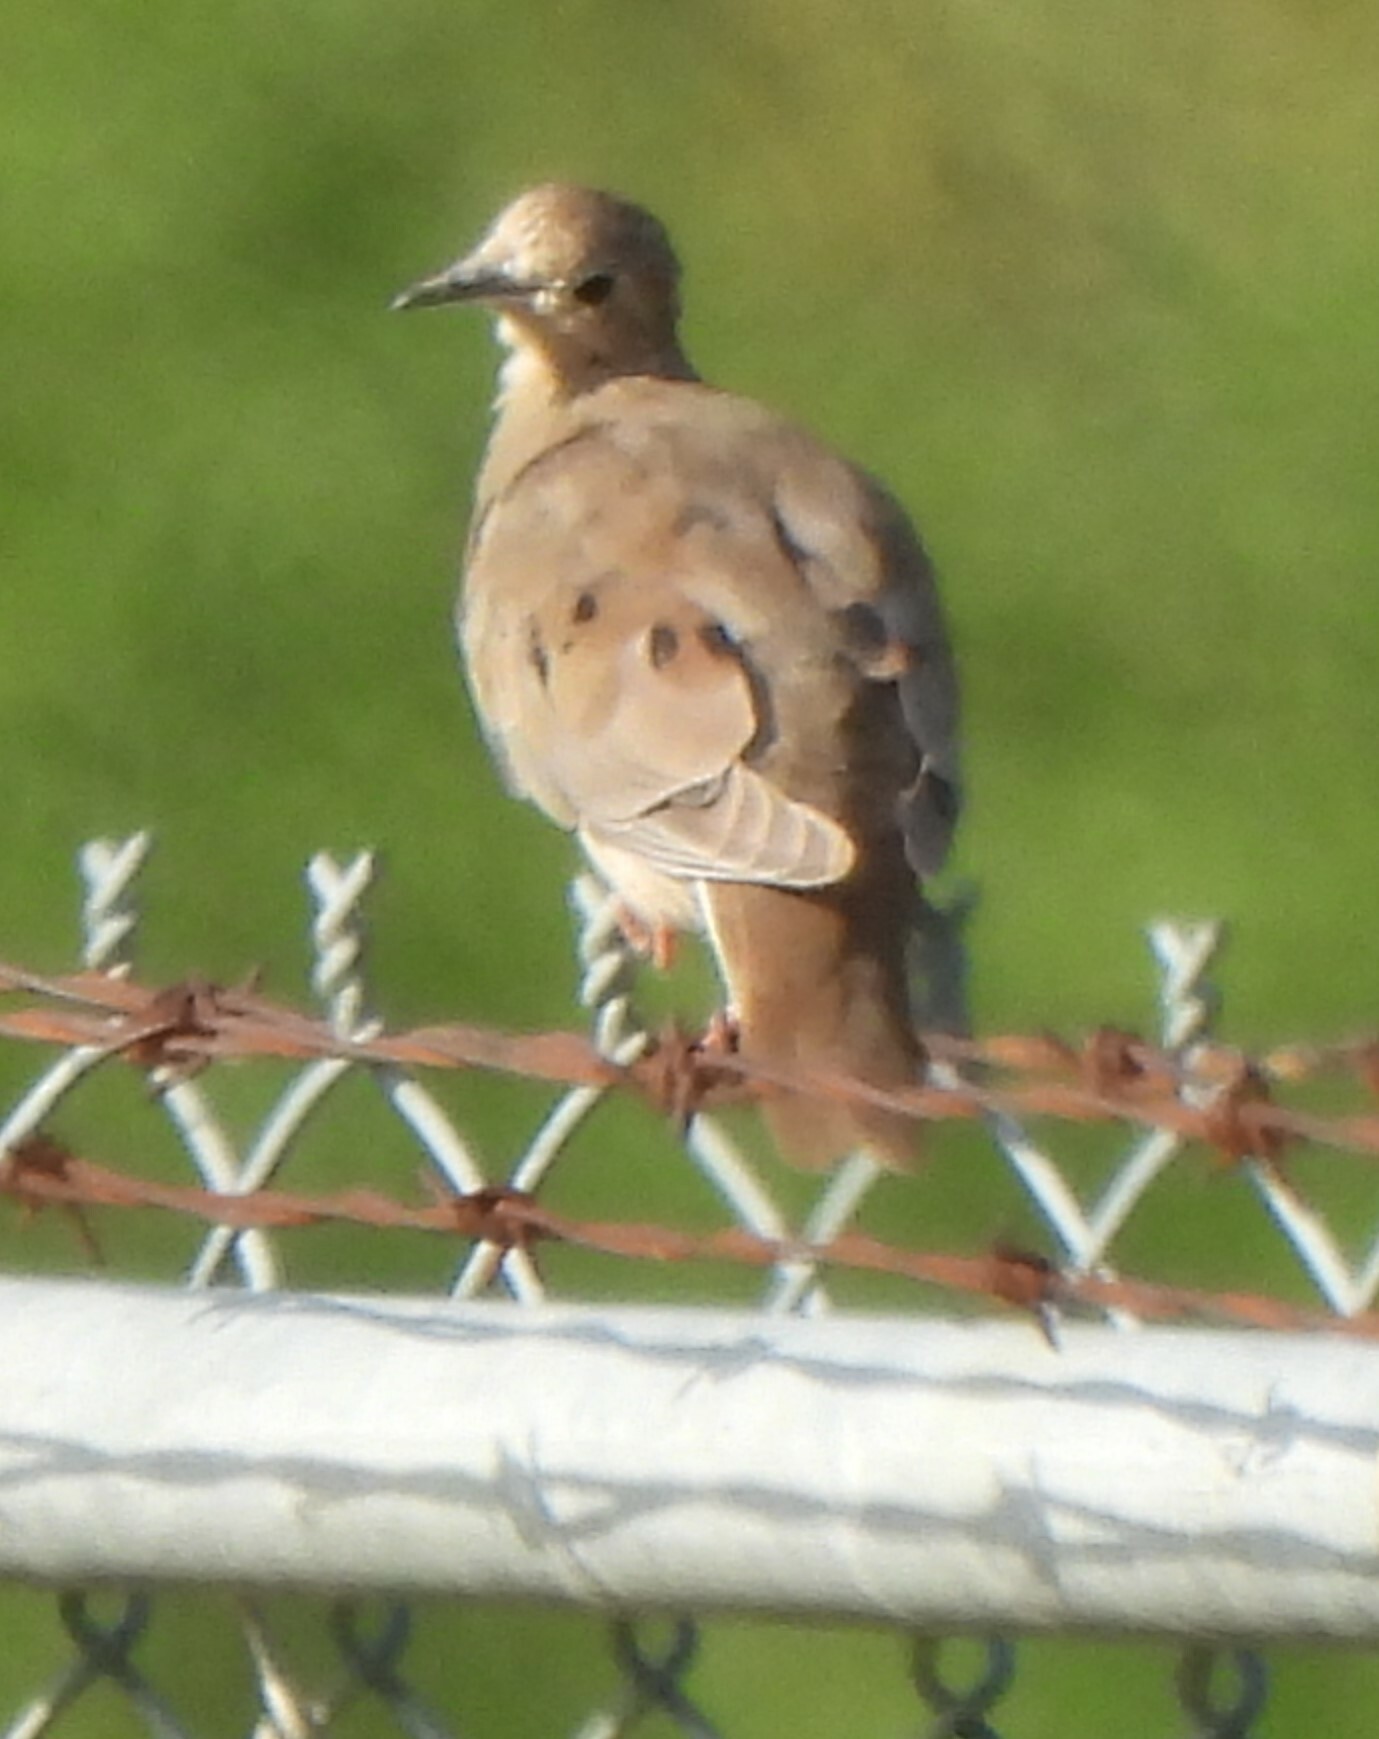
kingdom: Animalia
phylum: Chordata
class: Aves
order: Columbiformes
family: Columbidae
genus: Zenaida
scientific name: Zenaida macroura
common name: Mourning dove
